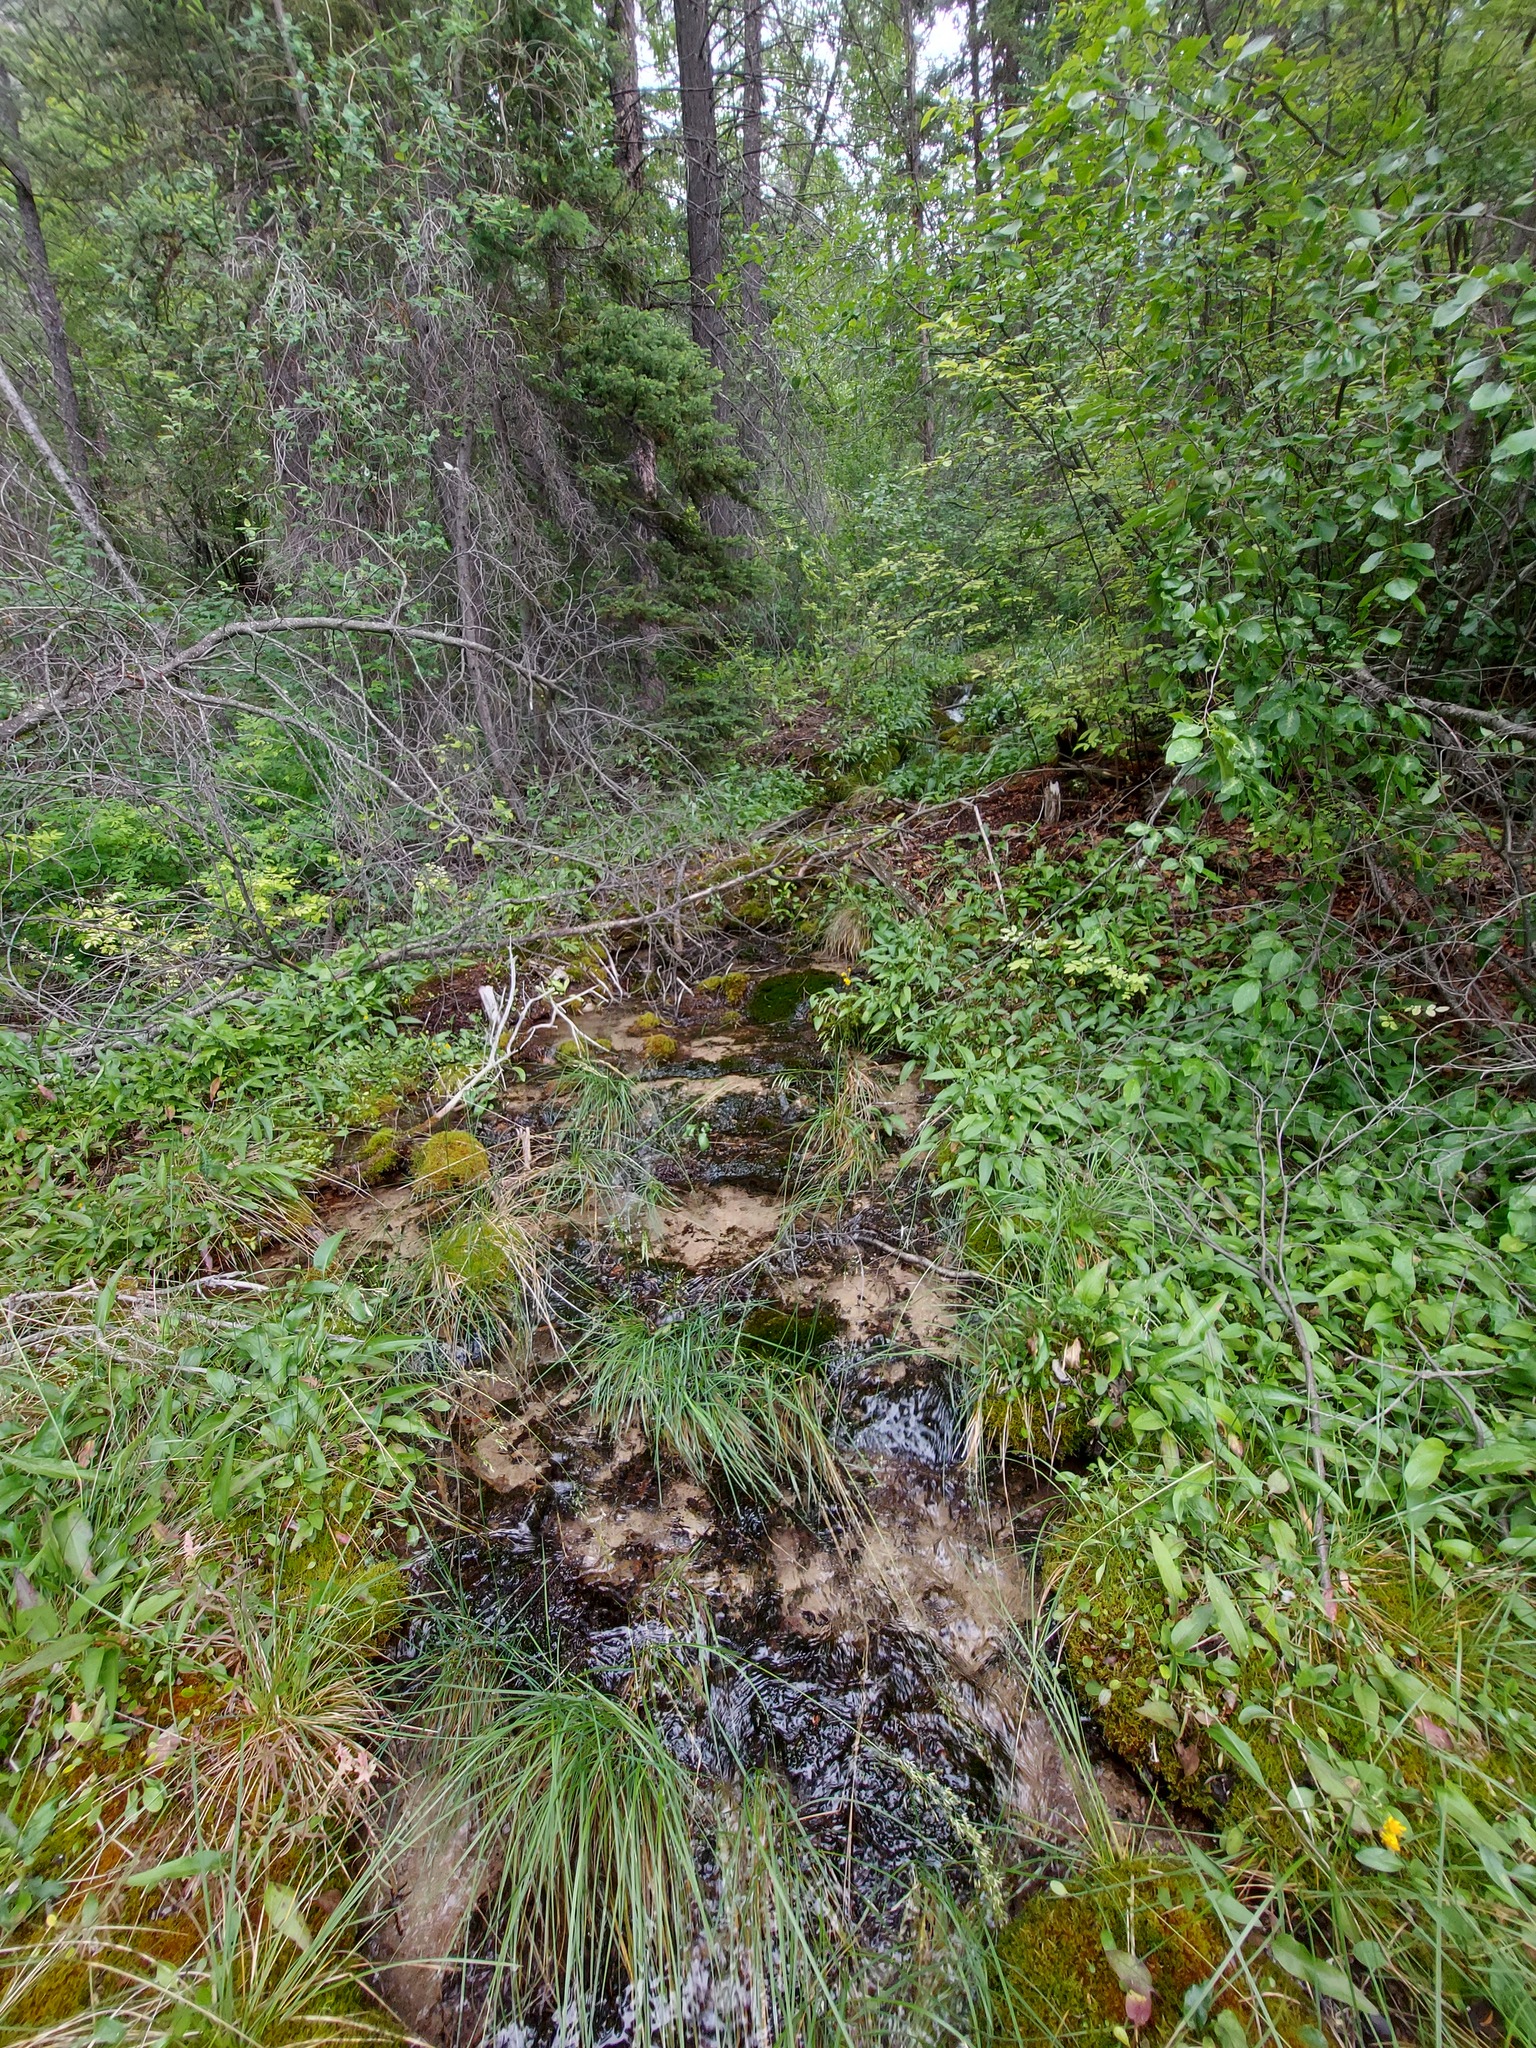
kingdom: Animalia
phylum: Arthropoda
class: Insecta
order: Lepidoptera
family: Nymphalidae
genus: Phyciodes
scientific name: Phyciodes tharos
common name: Pearl crescent
